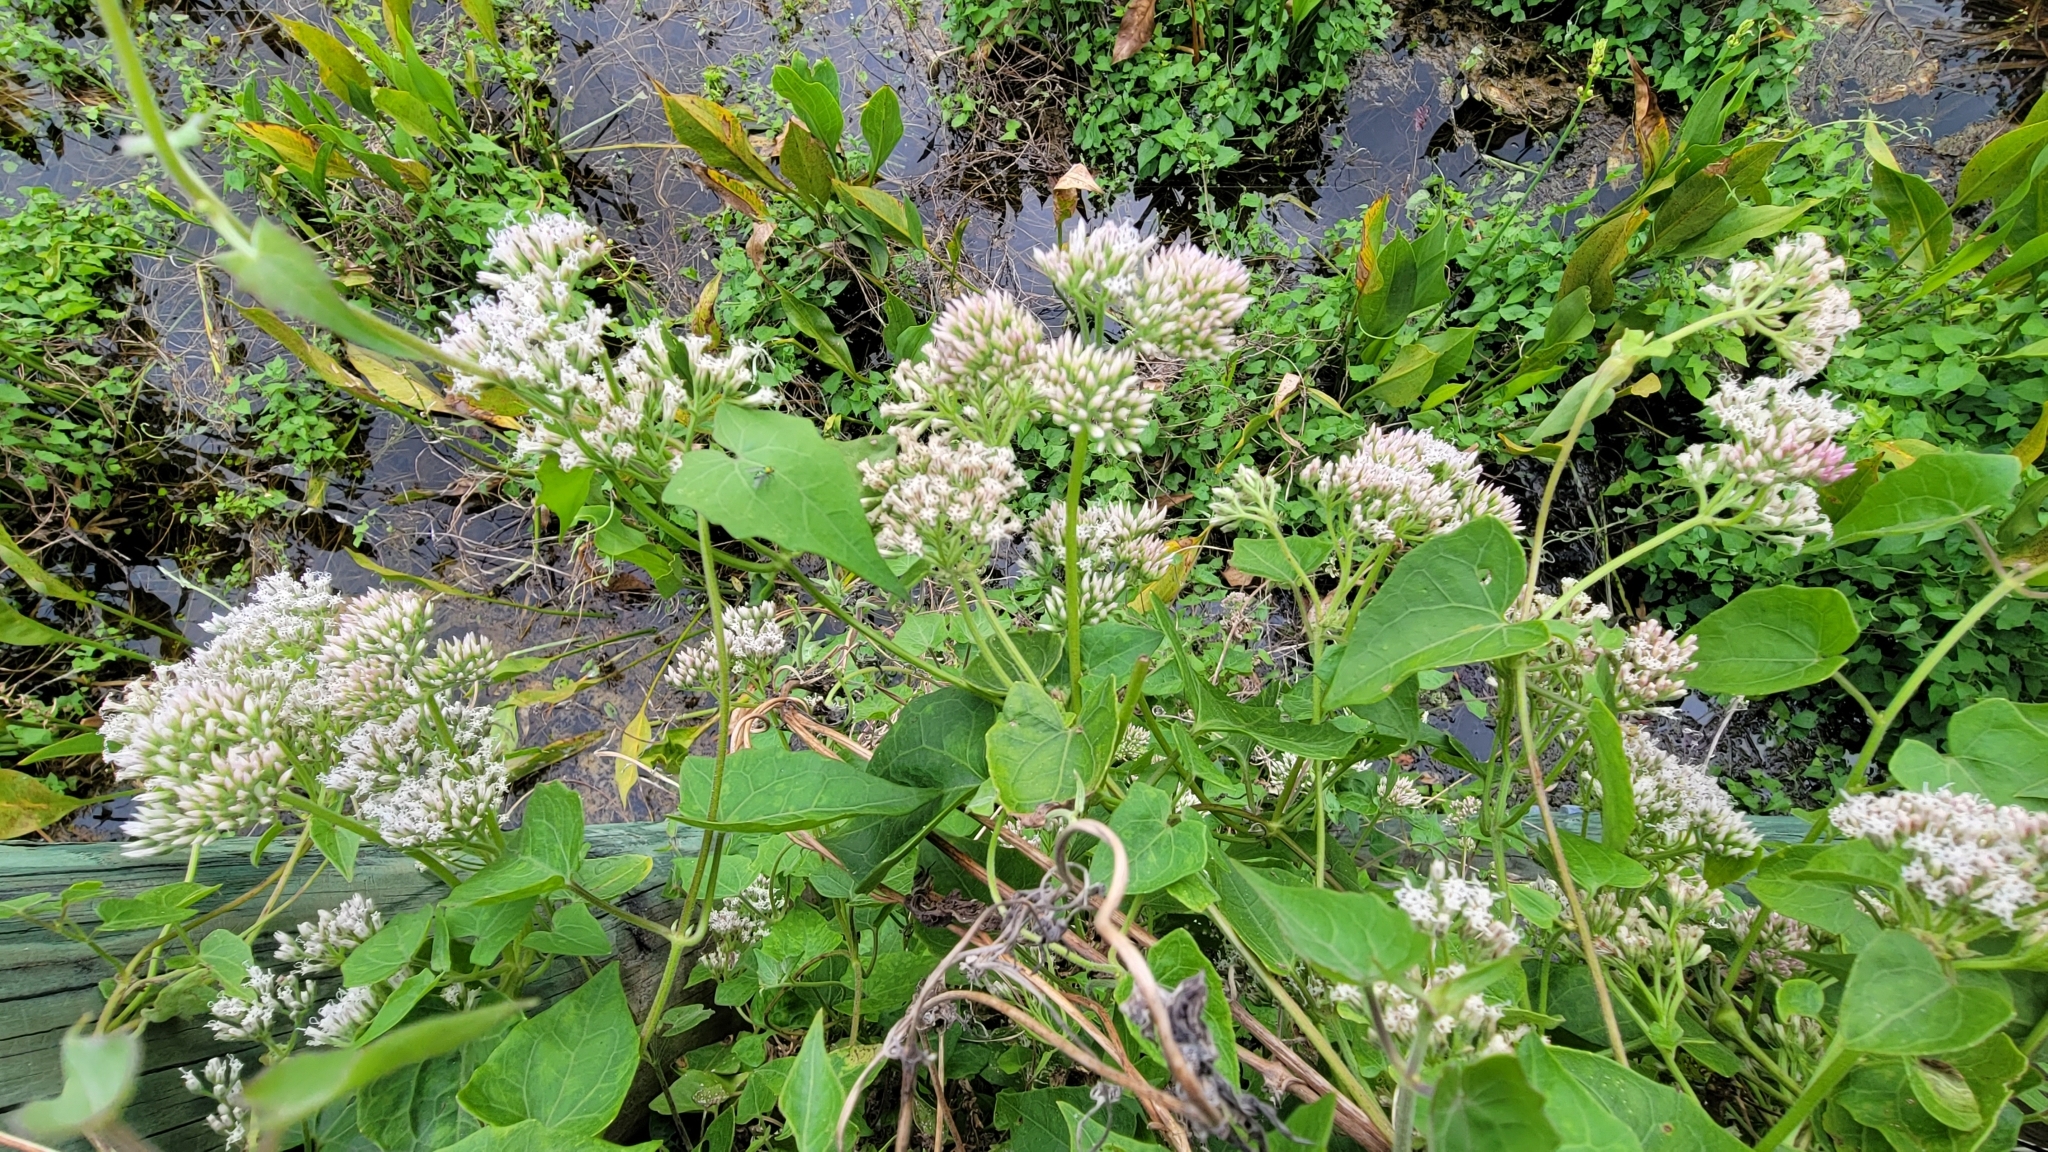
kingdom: Plantae
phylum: Tracheophyta
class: Magnoliopsida
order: Asterales
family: Asteraceae
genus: Mikania
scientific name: Mikania scandens
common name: Climbing hempvine
